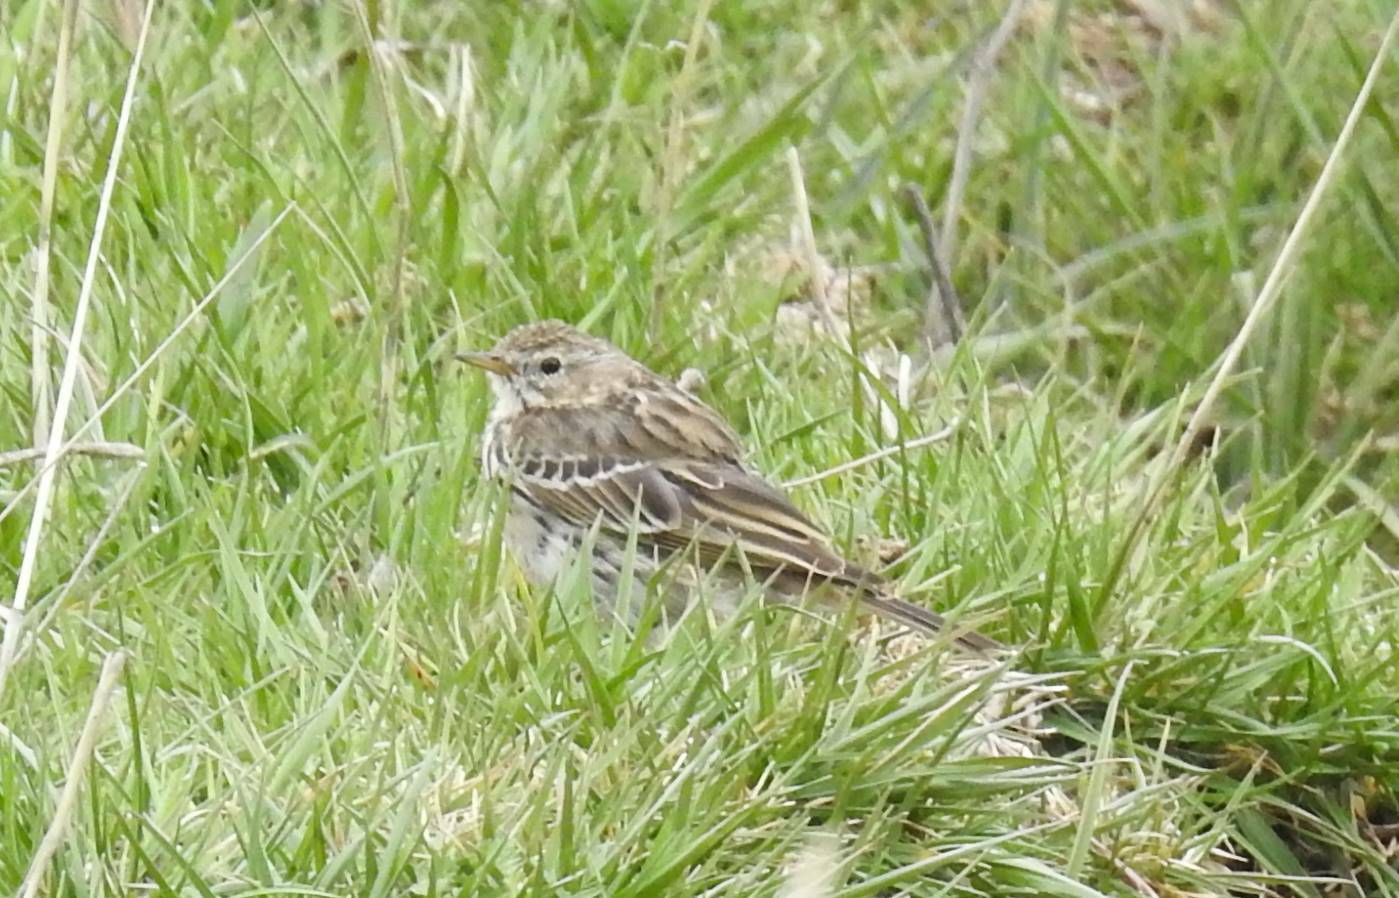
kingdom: Animalia
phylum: Chordata
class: Aves
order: Passeriformes
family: Motacillidae
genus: Anthus
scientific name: Anthus pratensis
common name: Meadow pipit
